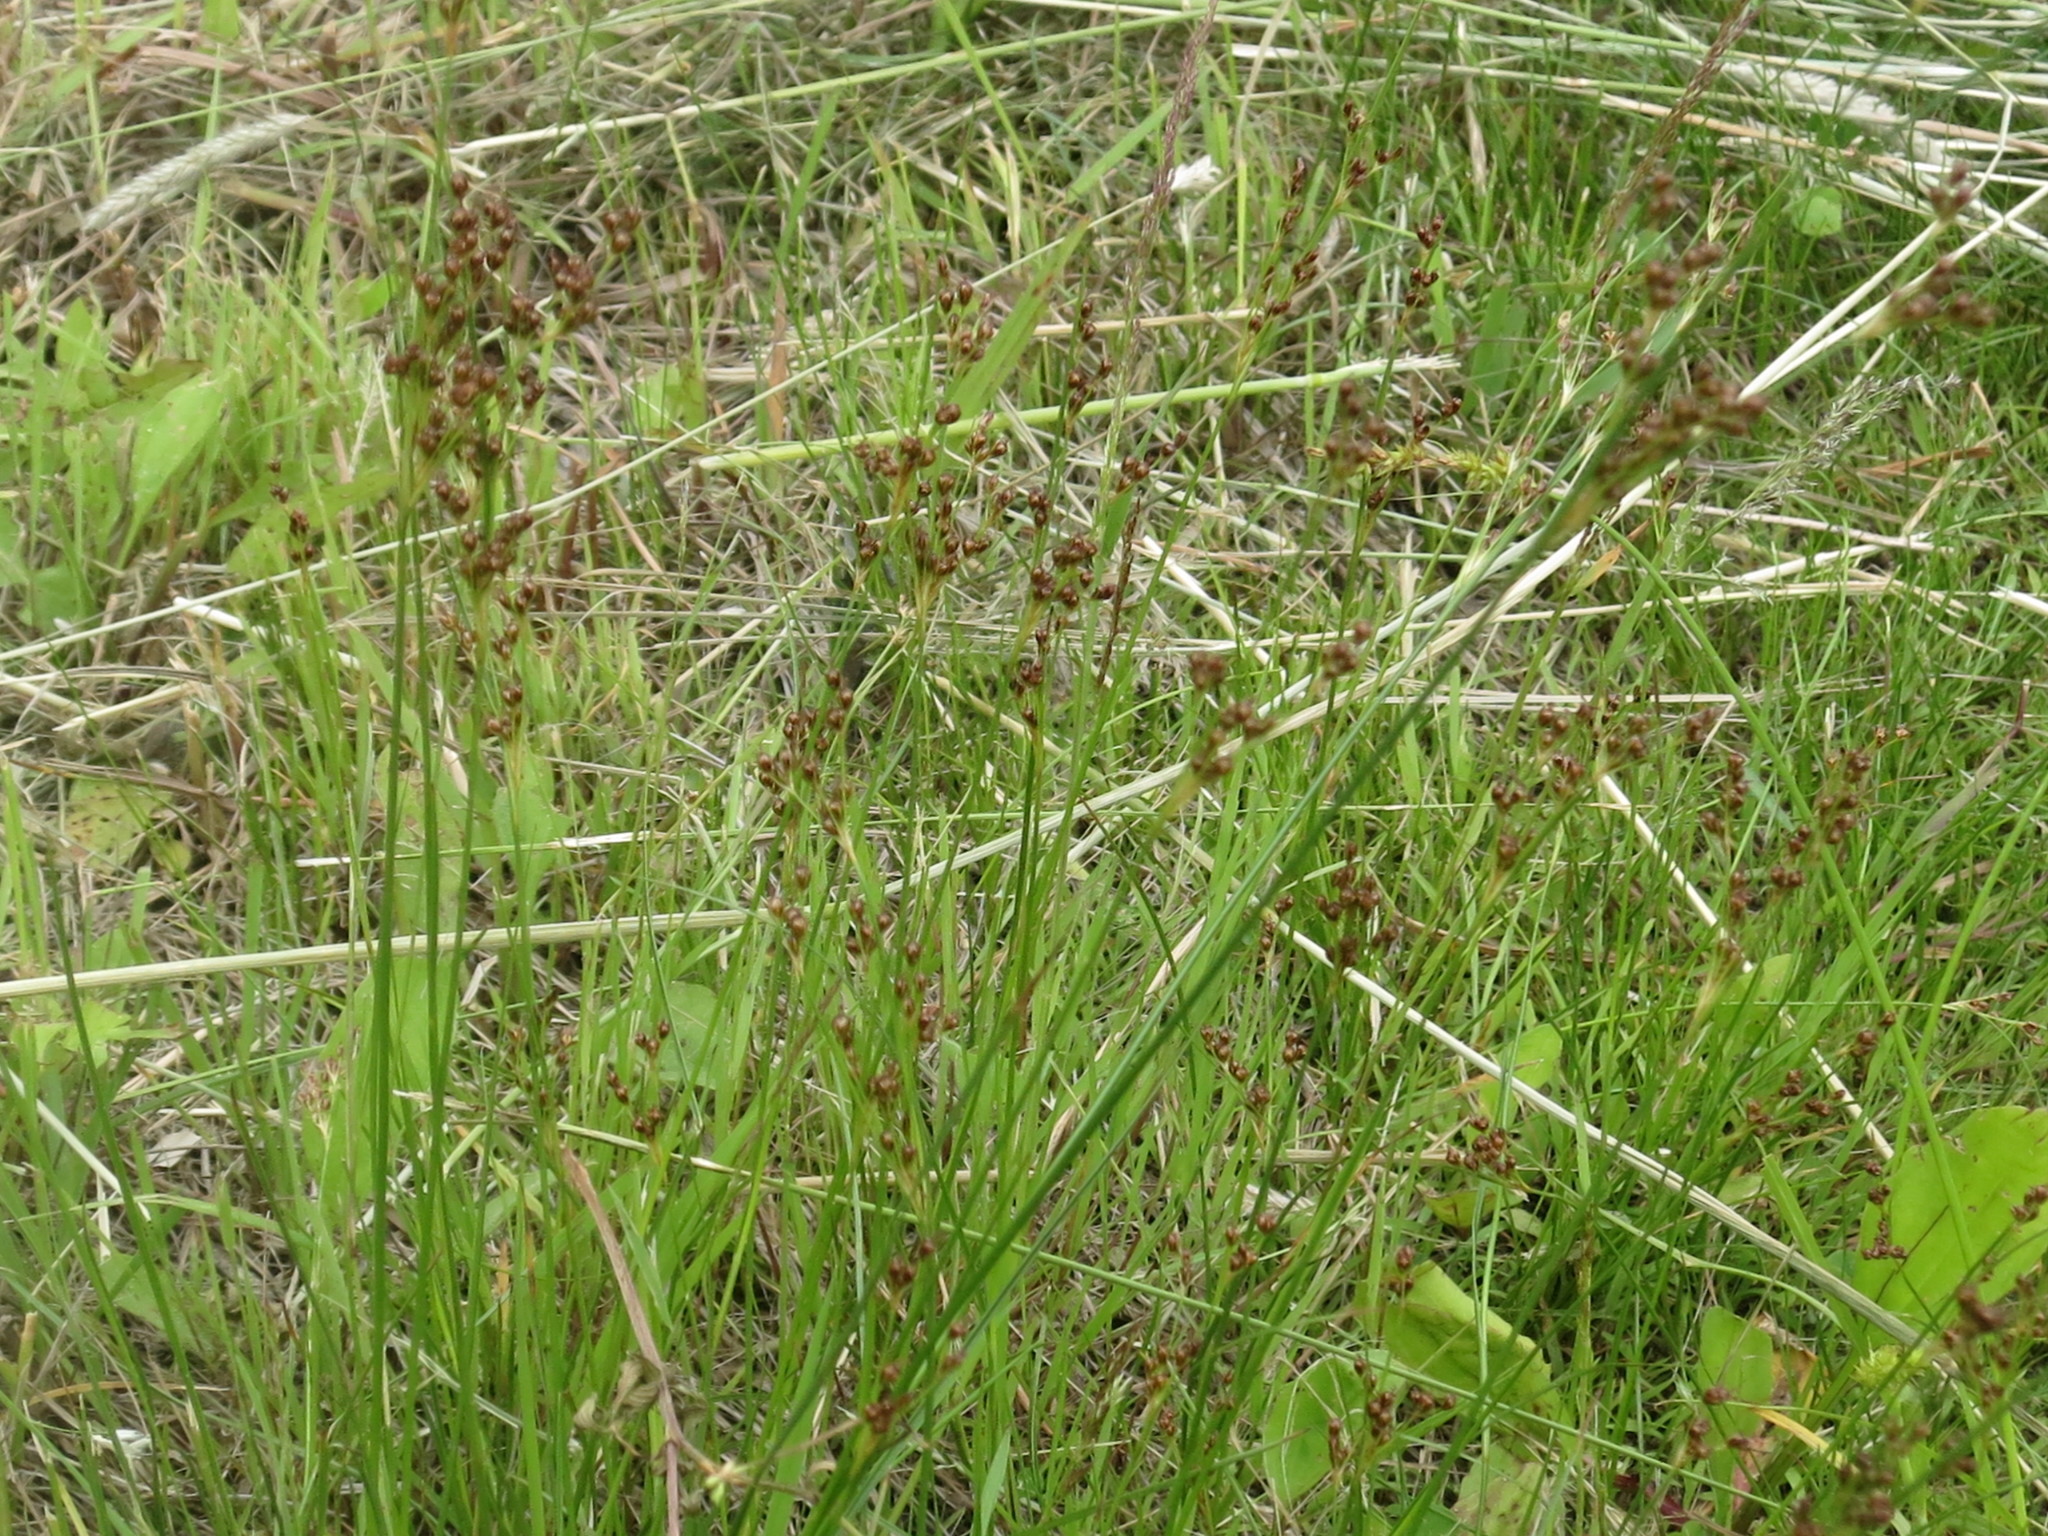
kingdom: Plantae
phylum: Tracheophyta
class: Liliopsida
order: Poales
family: Juncaceae
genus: Juncus
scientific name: Juncus compressus
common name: Round-fruited rush
